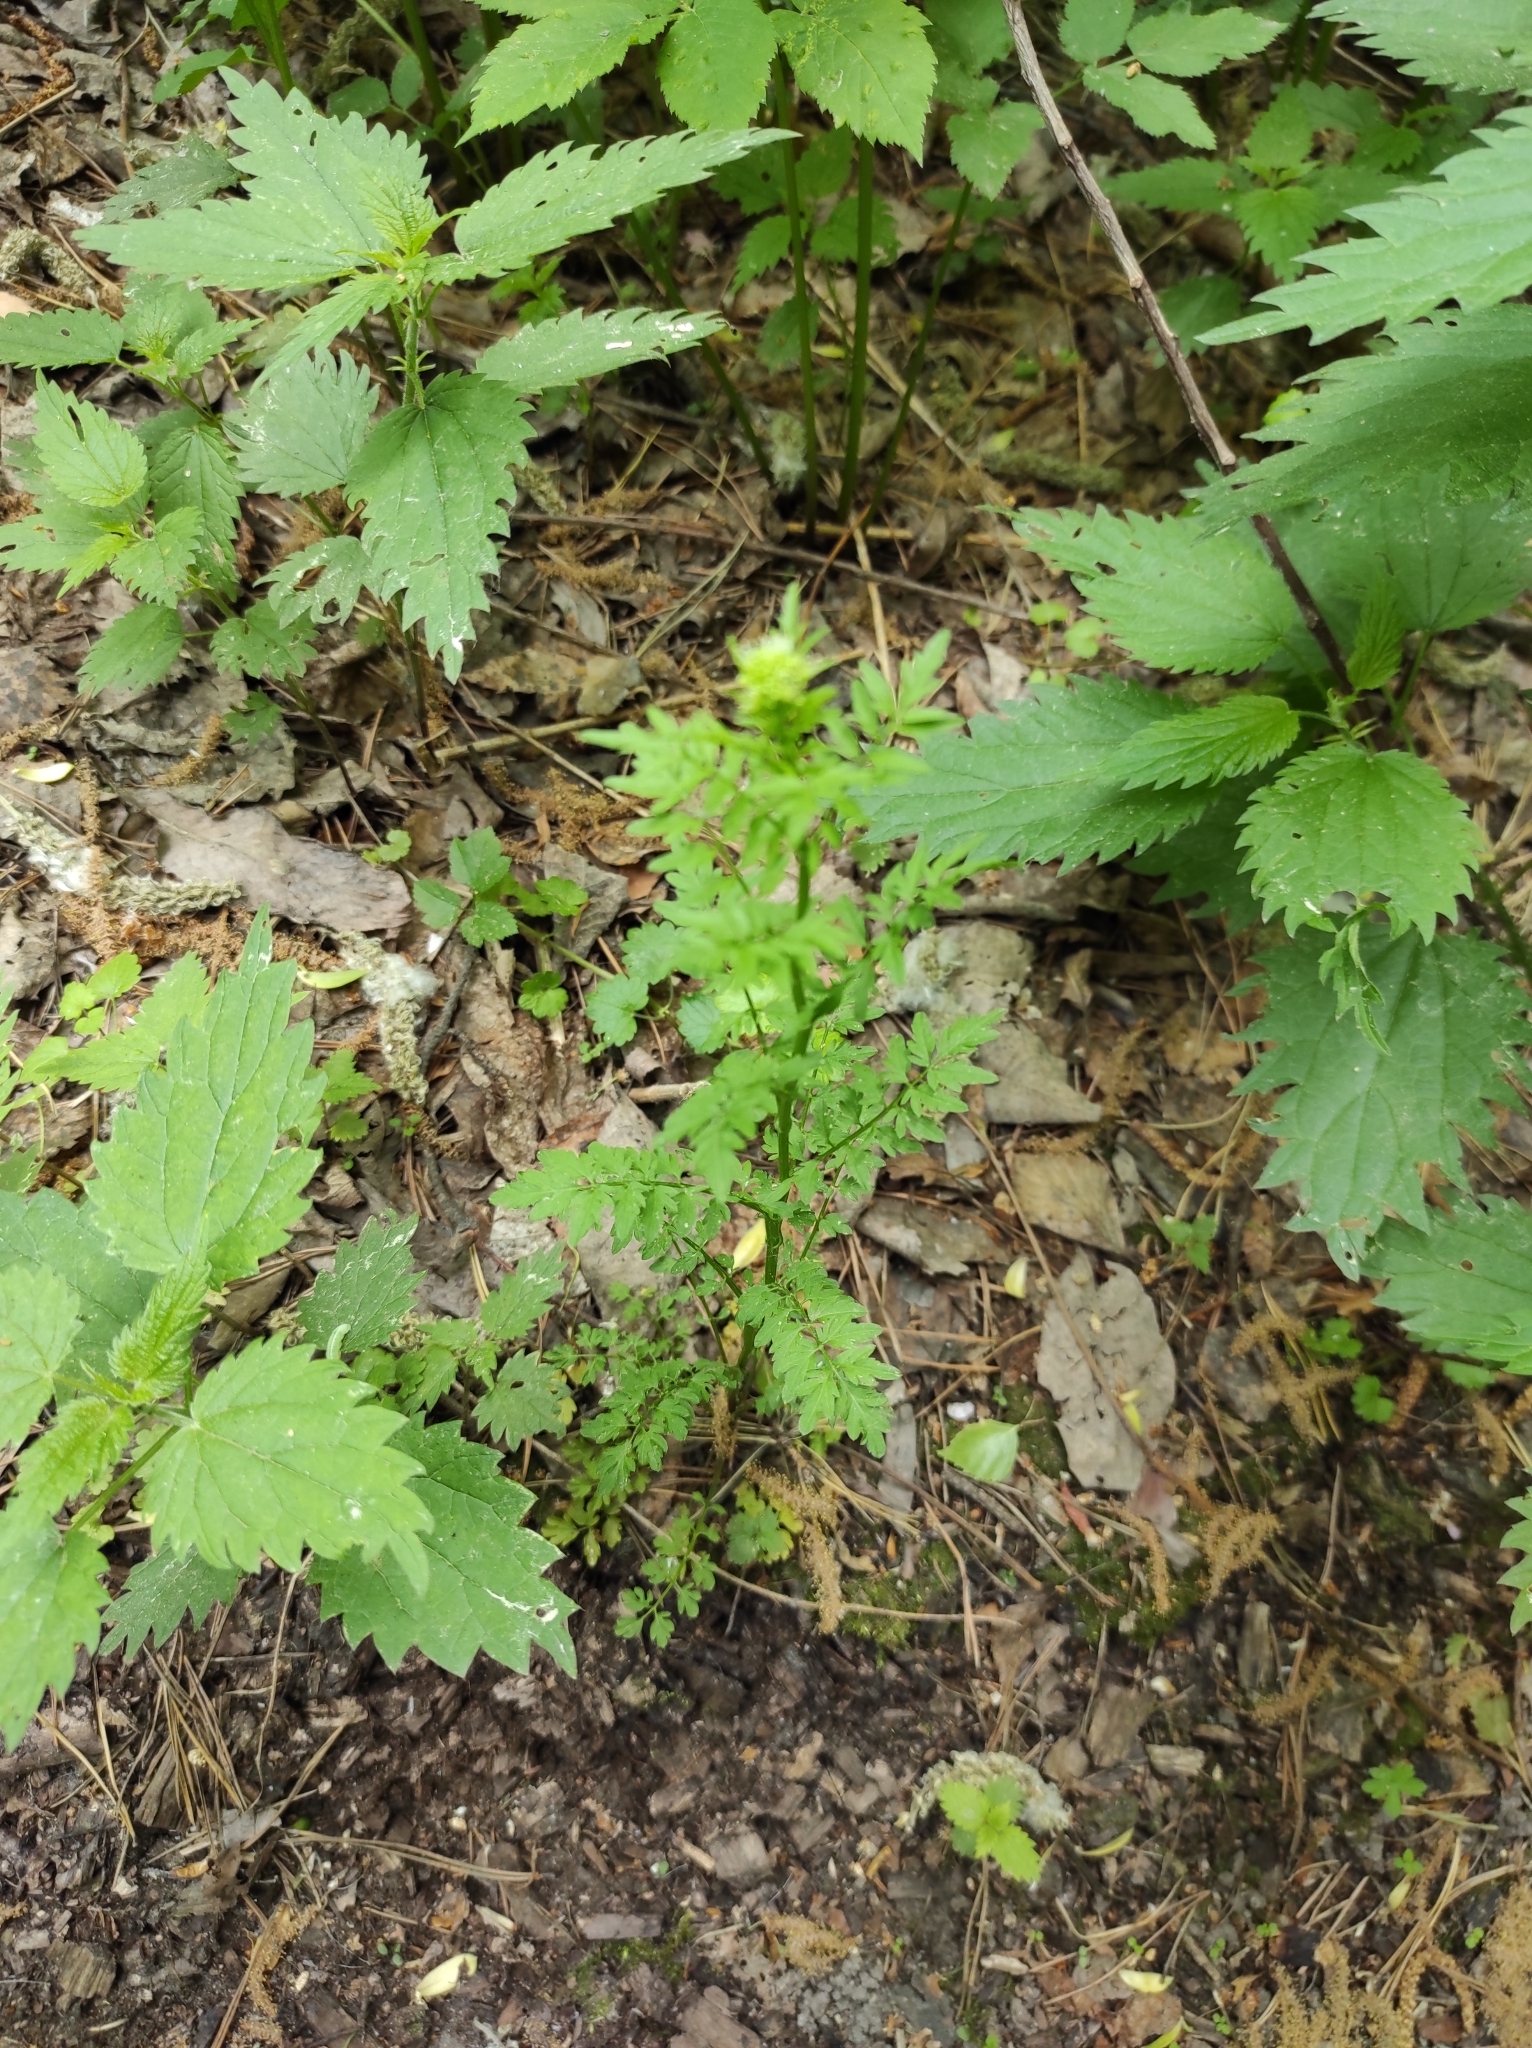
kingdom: Plantae
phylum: Tracheophyta
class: Magnoliopsida
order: Brassicales
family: Brassicaceae
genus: Cardamine
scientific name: Cardamine impatiens
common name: Narrow-leaved bitter-cress
